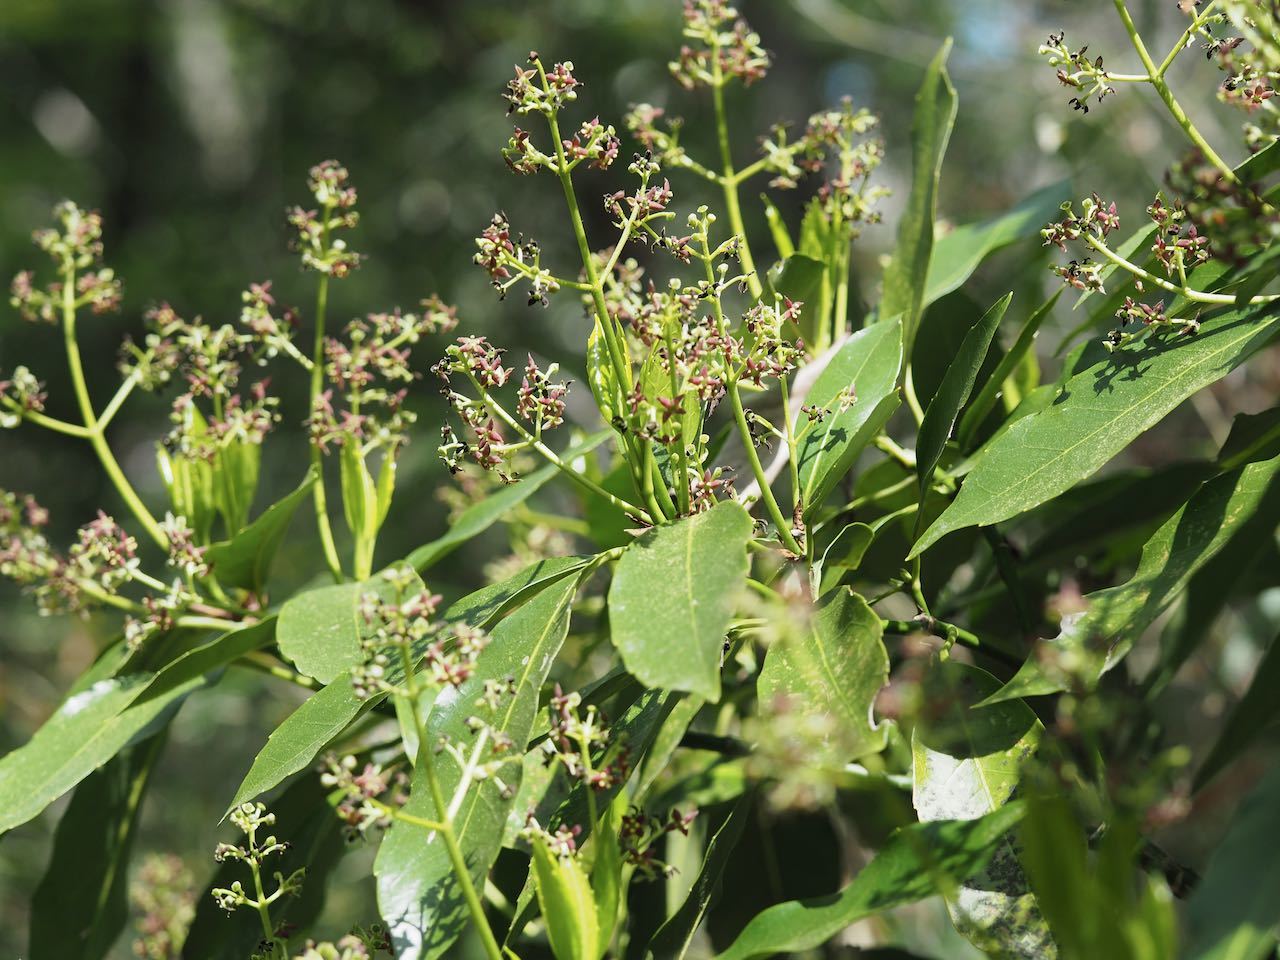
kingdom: Plantae
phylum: Tracheophyta
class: Magnoliopsida
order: Garryales
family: Garryaceae
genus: Aucuba
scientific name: Aucuba japonica
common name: Spotted-laurel
